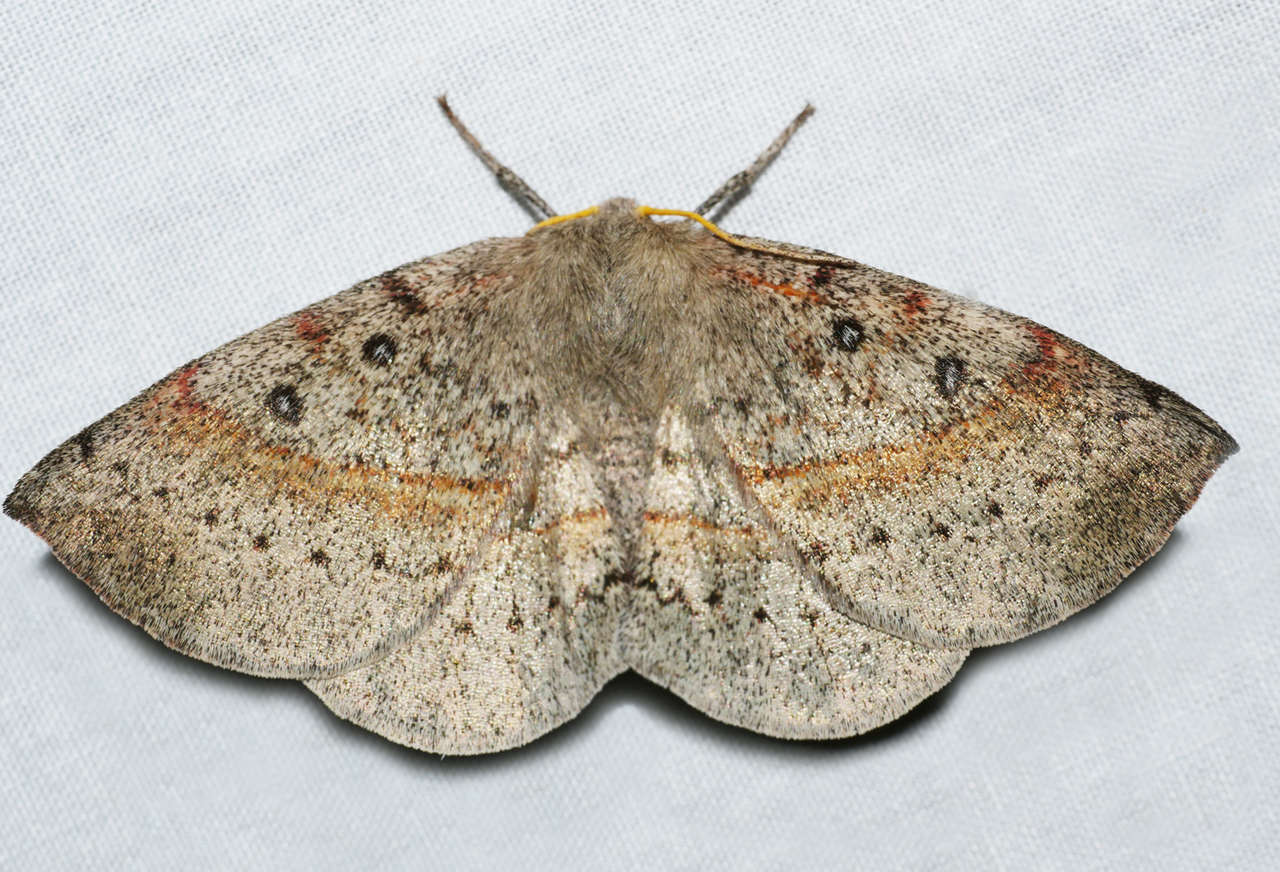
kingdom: Animalia
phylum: Arthropoda
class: Insecta
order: Lepidoptera
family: Anthelidae
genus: Anthela
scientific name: Anthela acuta
